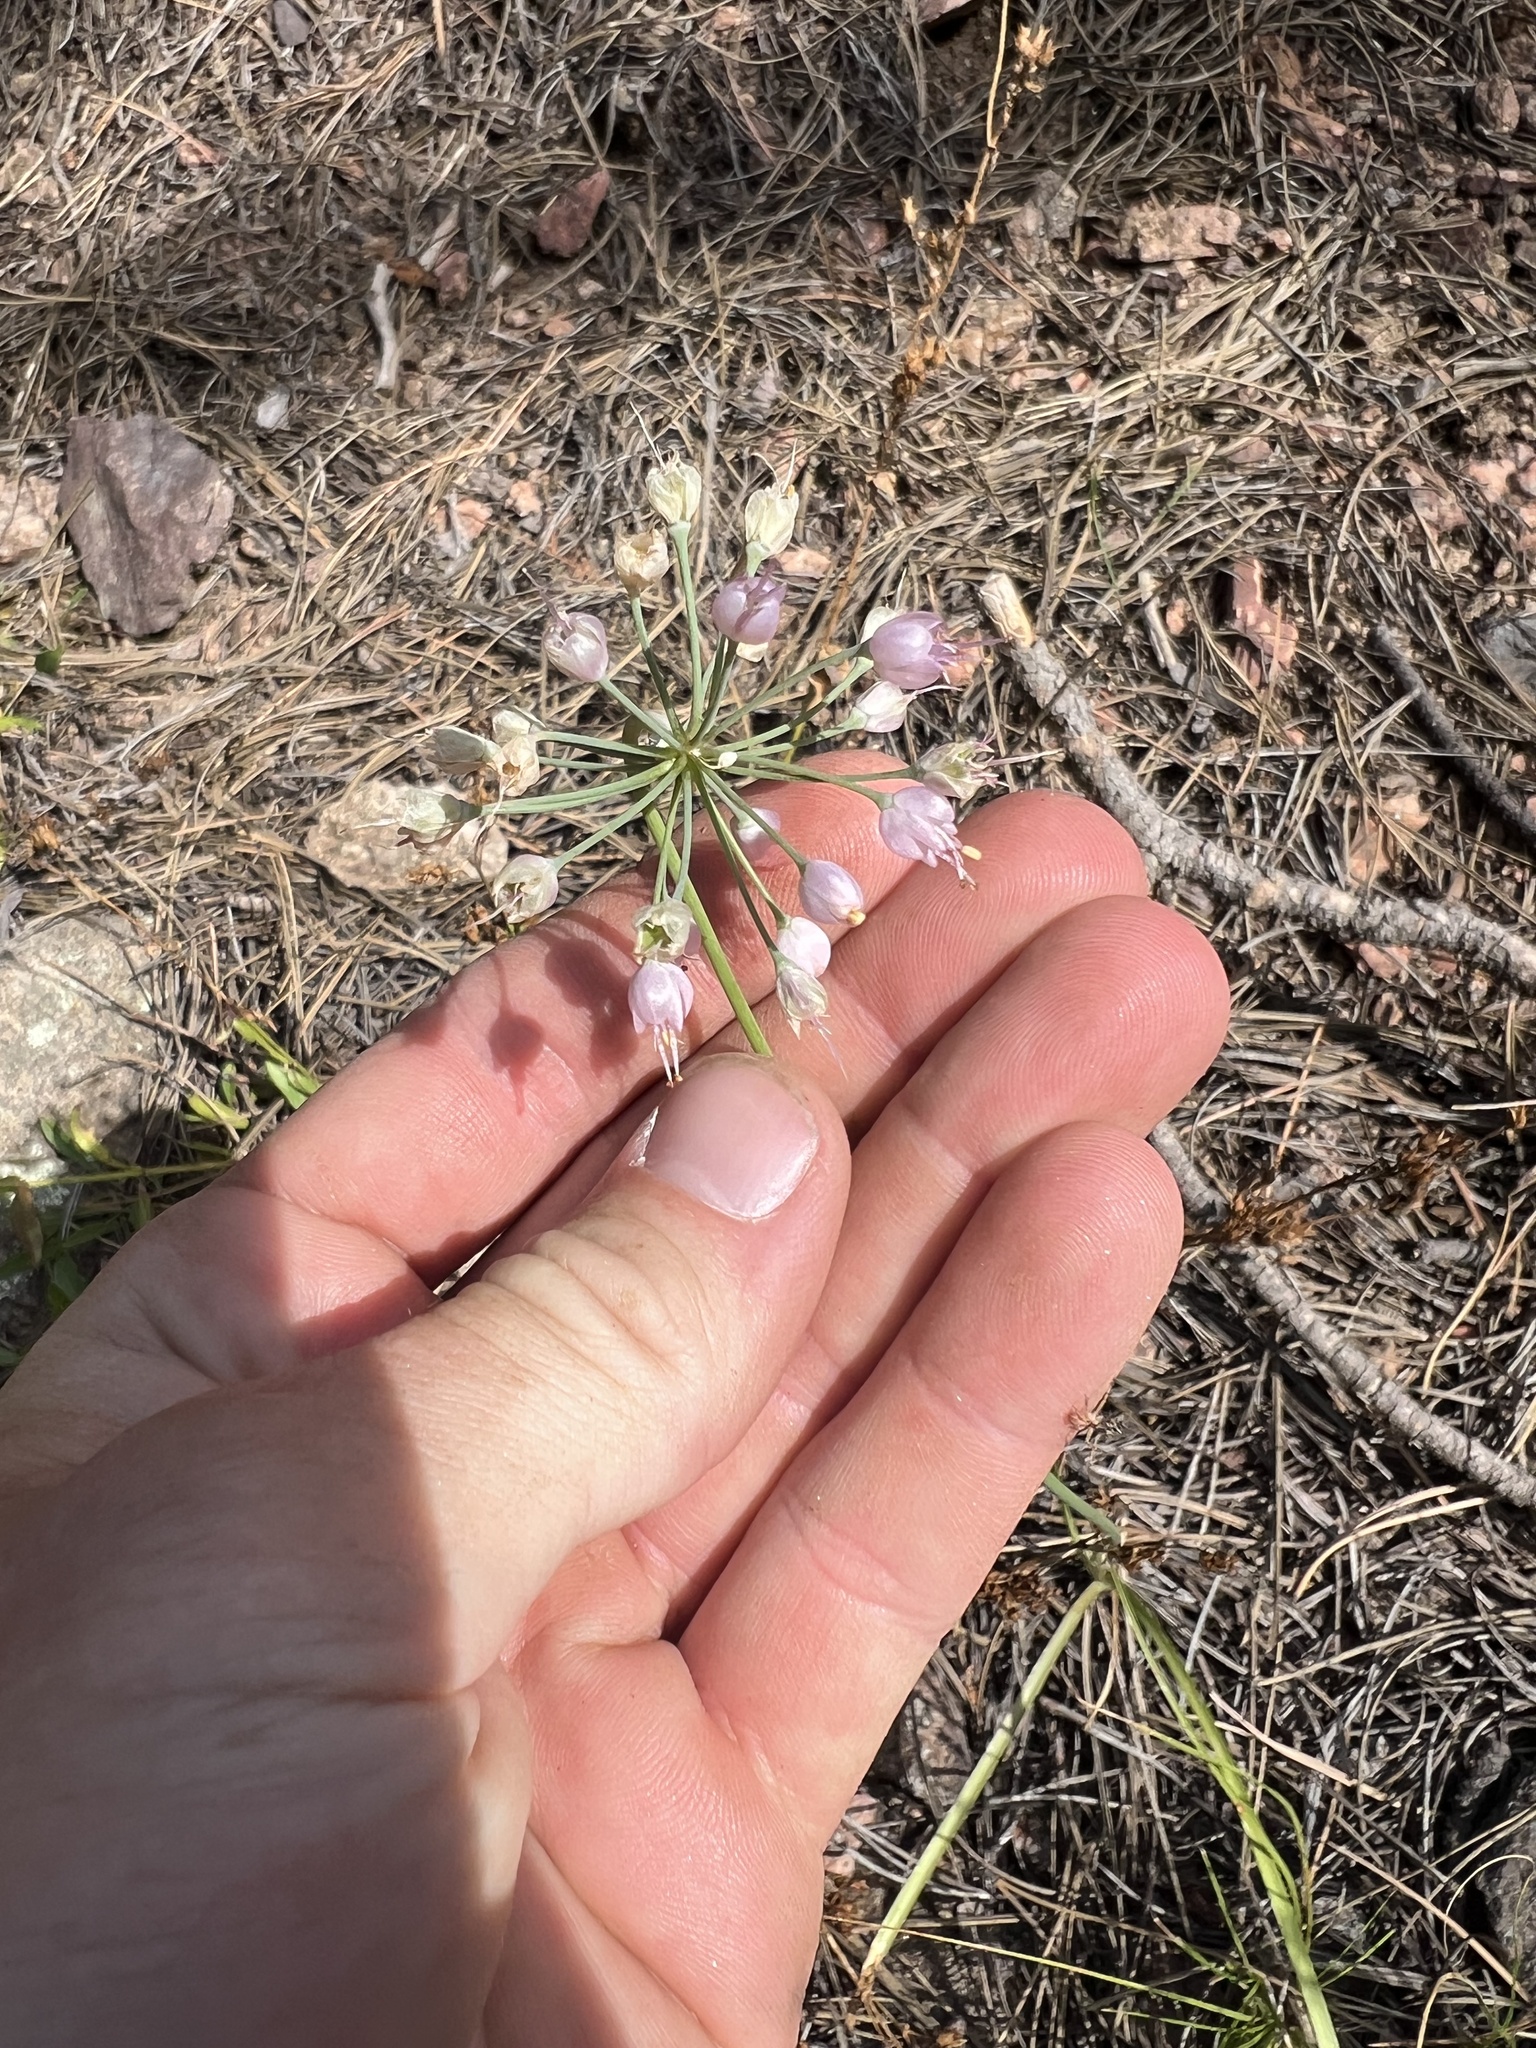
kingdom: Plantae
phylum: Tracheophyta
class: Liliopsida
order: Asparagales
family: Amaryllidaceae
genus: Allium
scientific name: Allium cernuum
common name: Nodding onion
